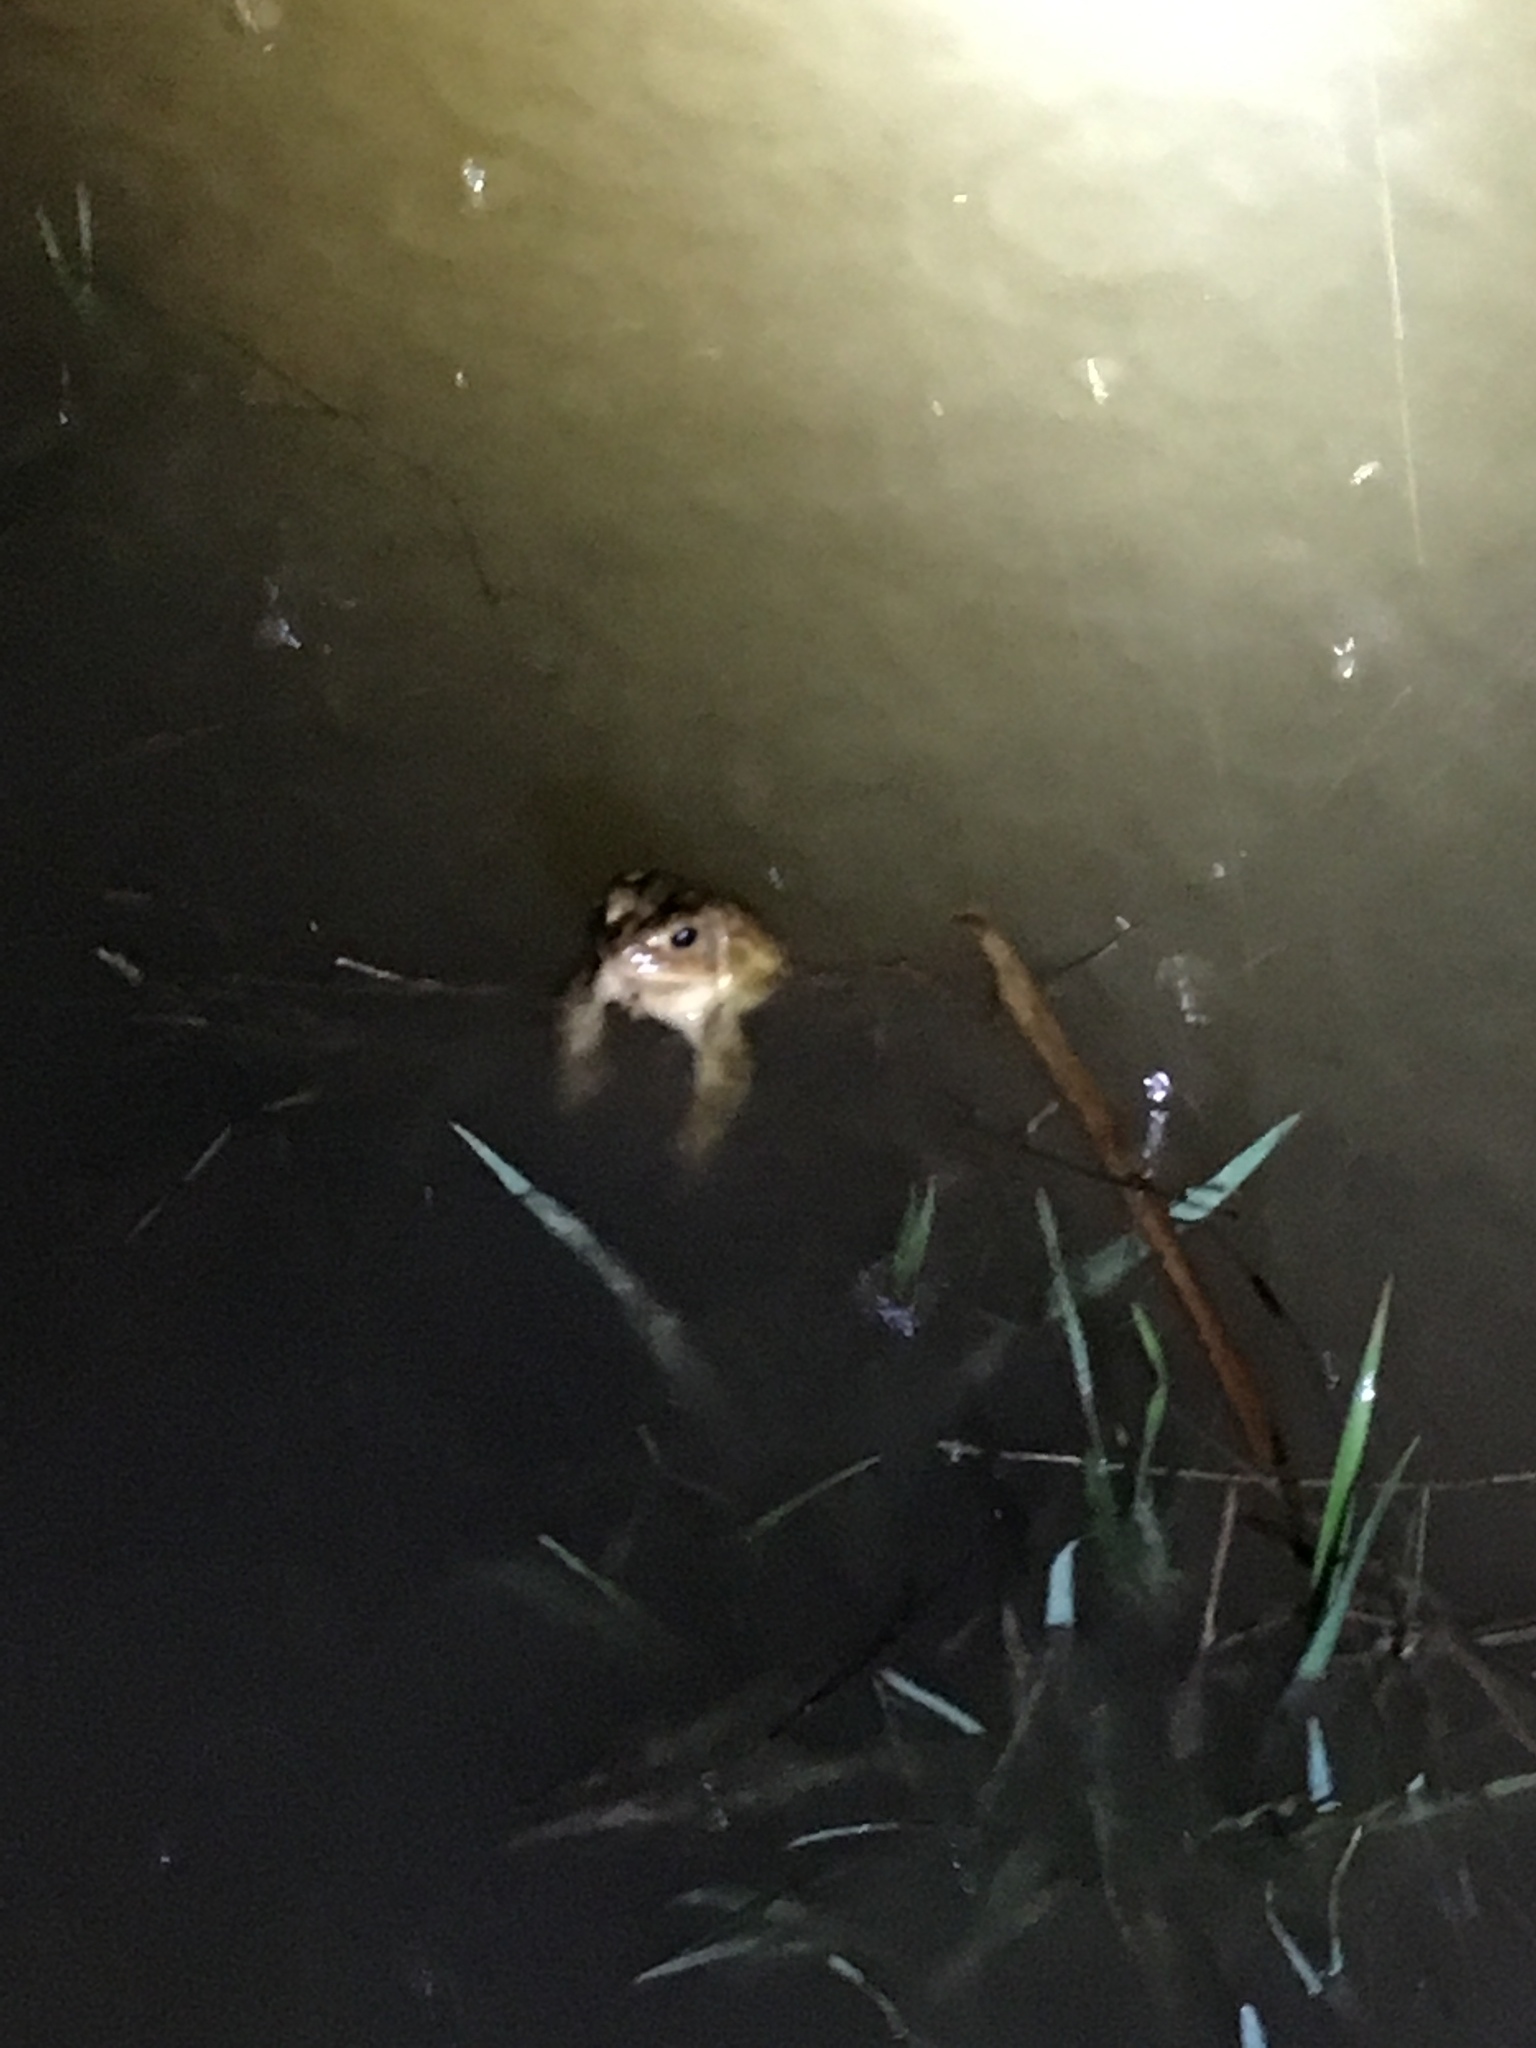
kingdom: Animalia
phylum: Chordata
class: Amphibia
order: Anura
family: Bufonidae
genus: Anaxyrus
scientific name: Anaxyrus americanus
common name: American toad
